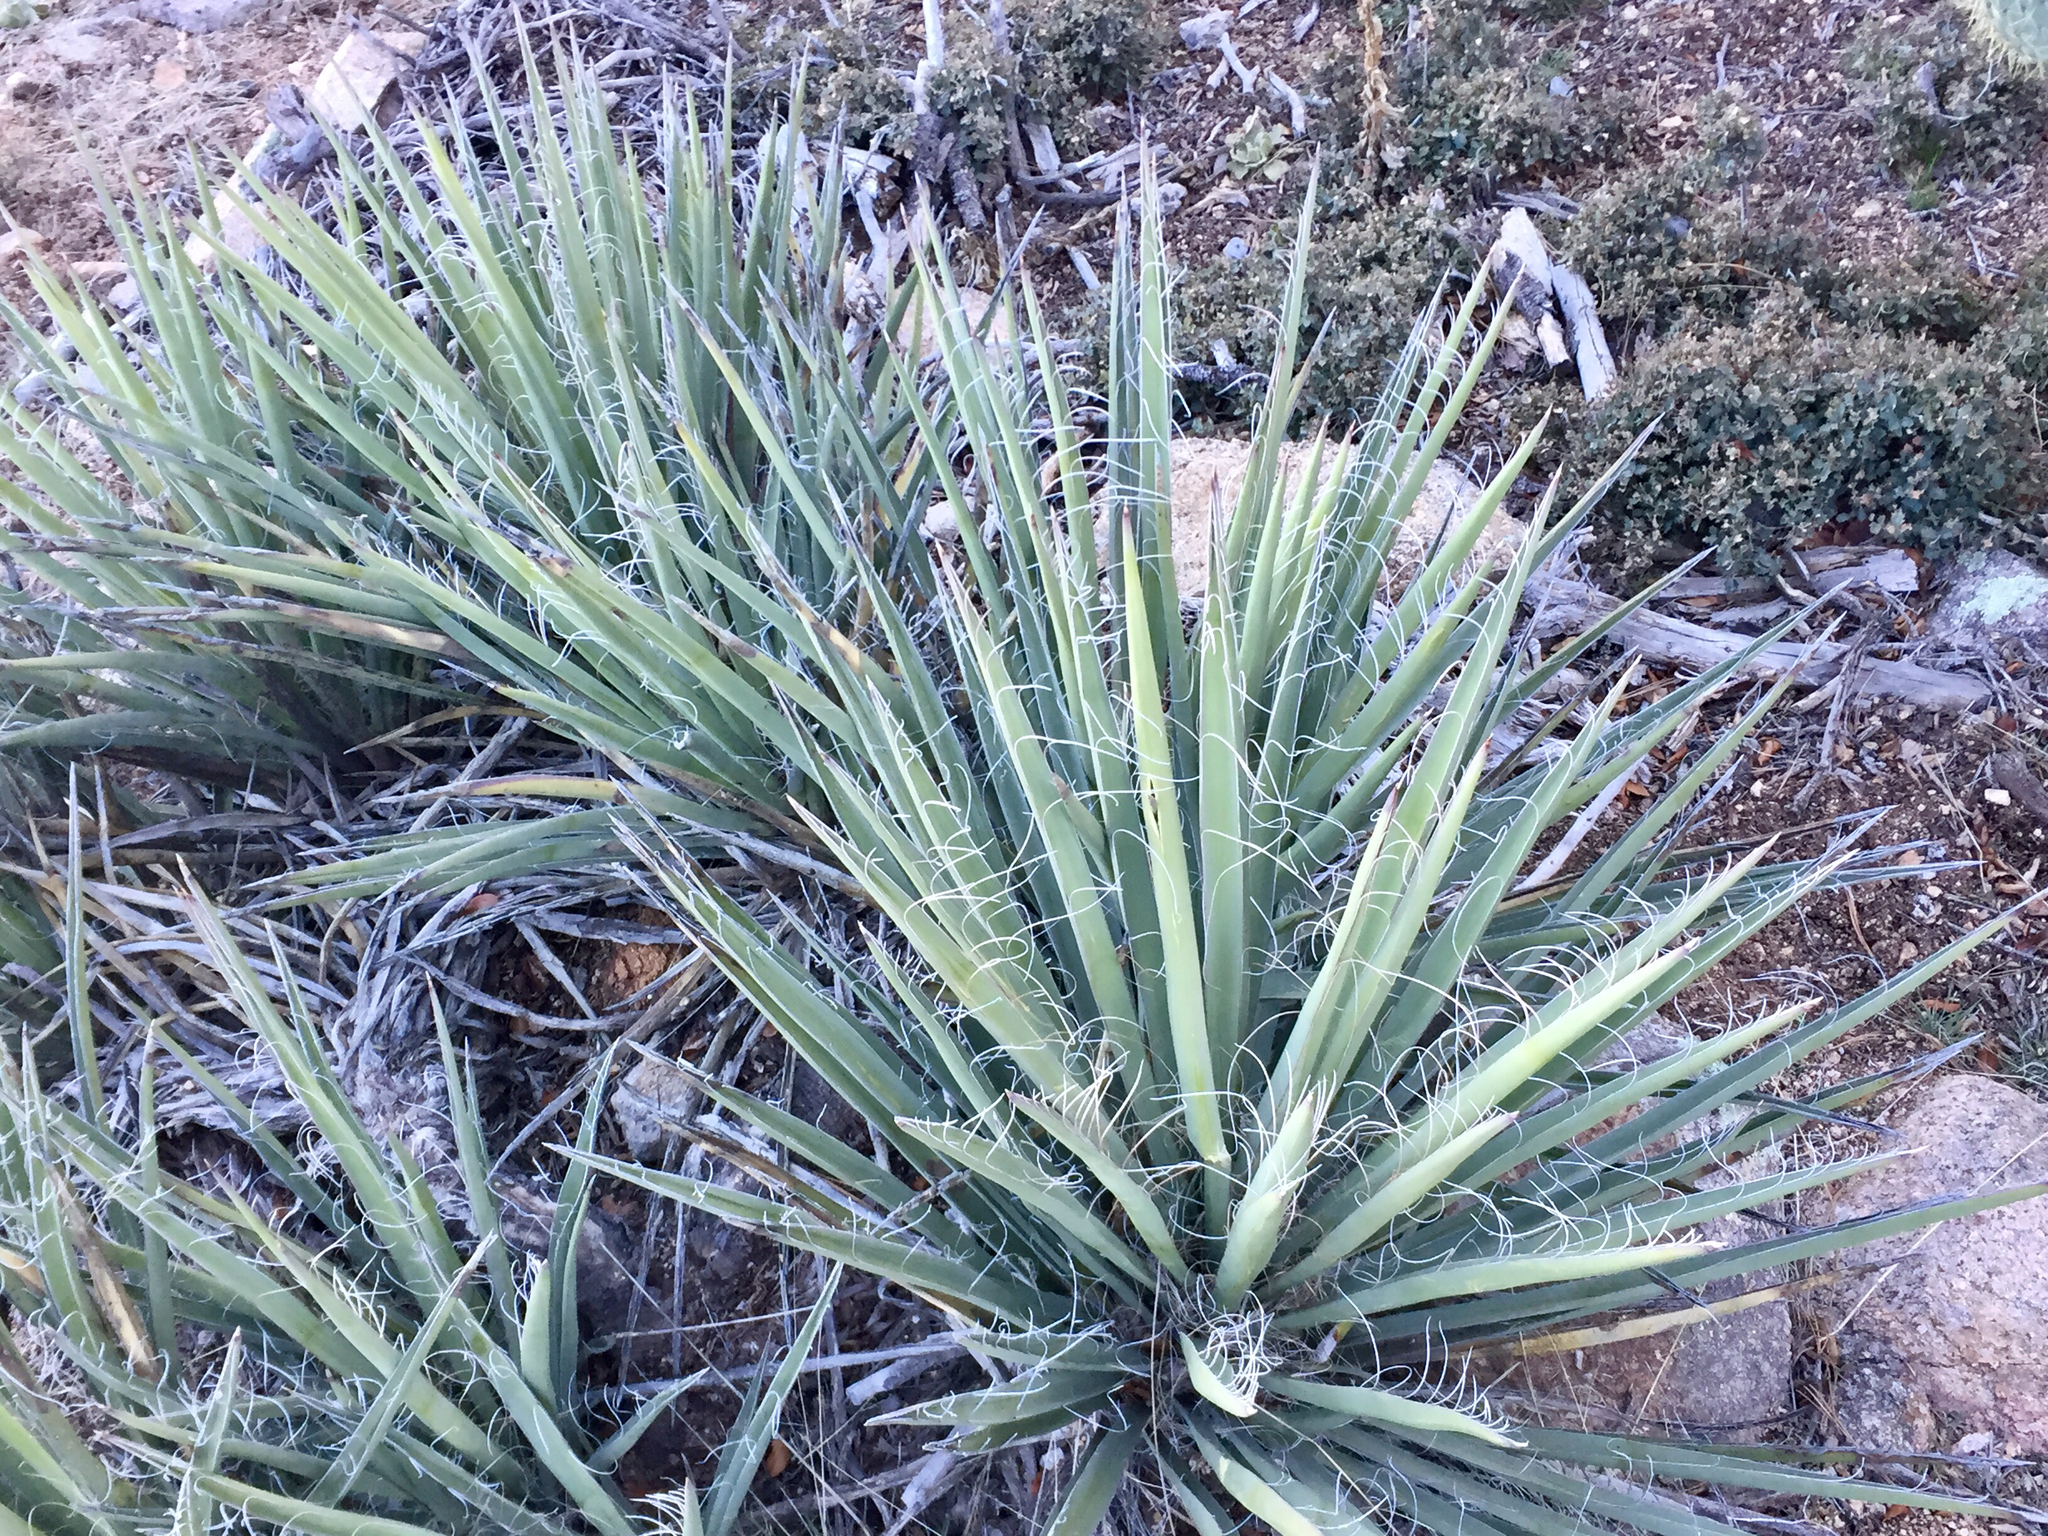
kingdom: Plantae
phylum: Tracheophyta
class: Liliopsida
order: Asparagales
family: Asparagaceae
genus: Yucca
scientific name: Yucca baccata
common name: Banana yucca
